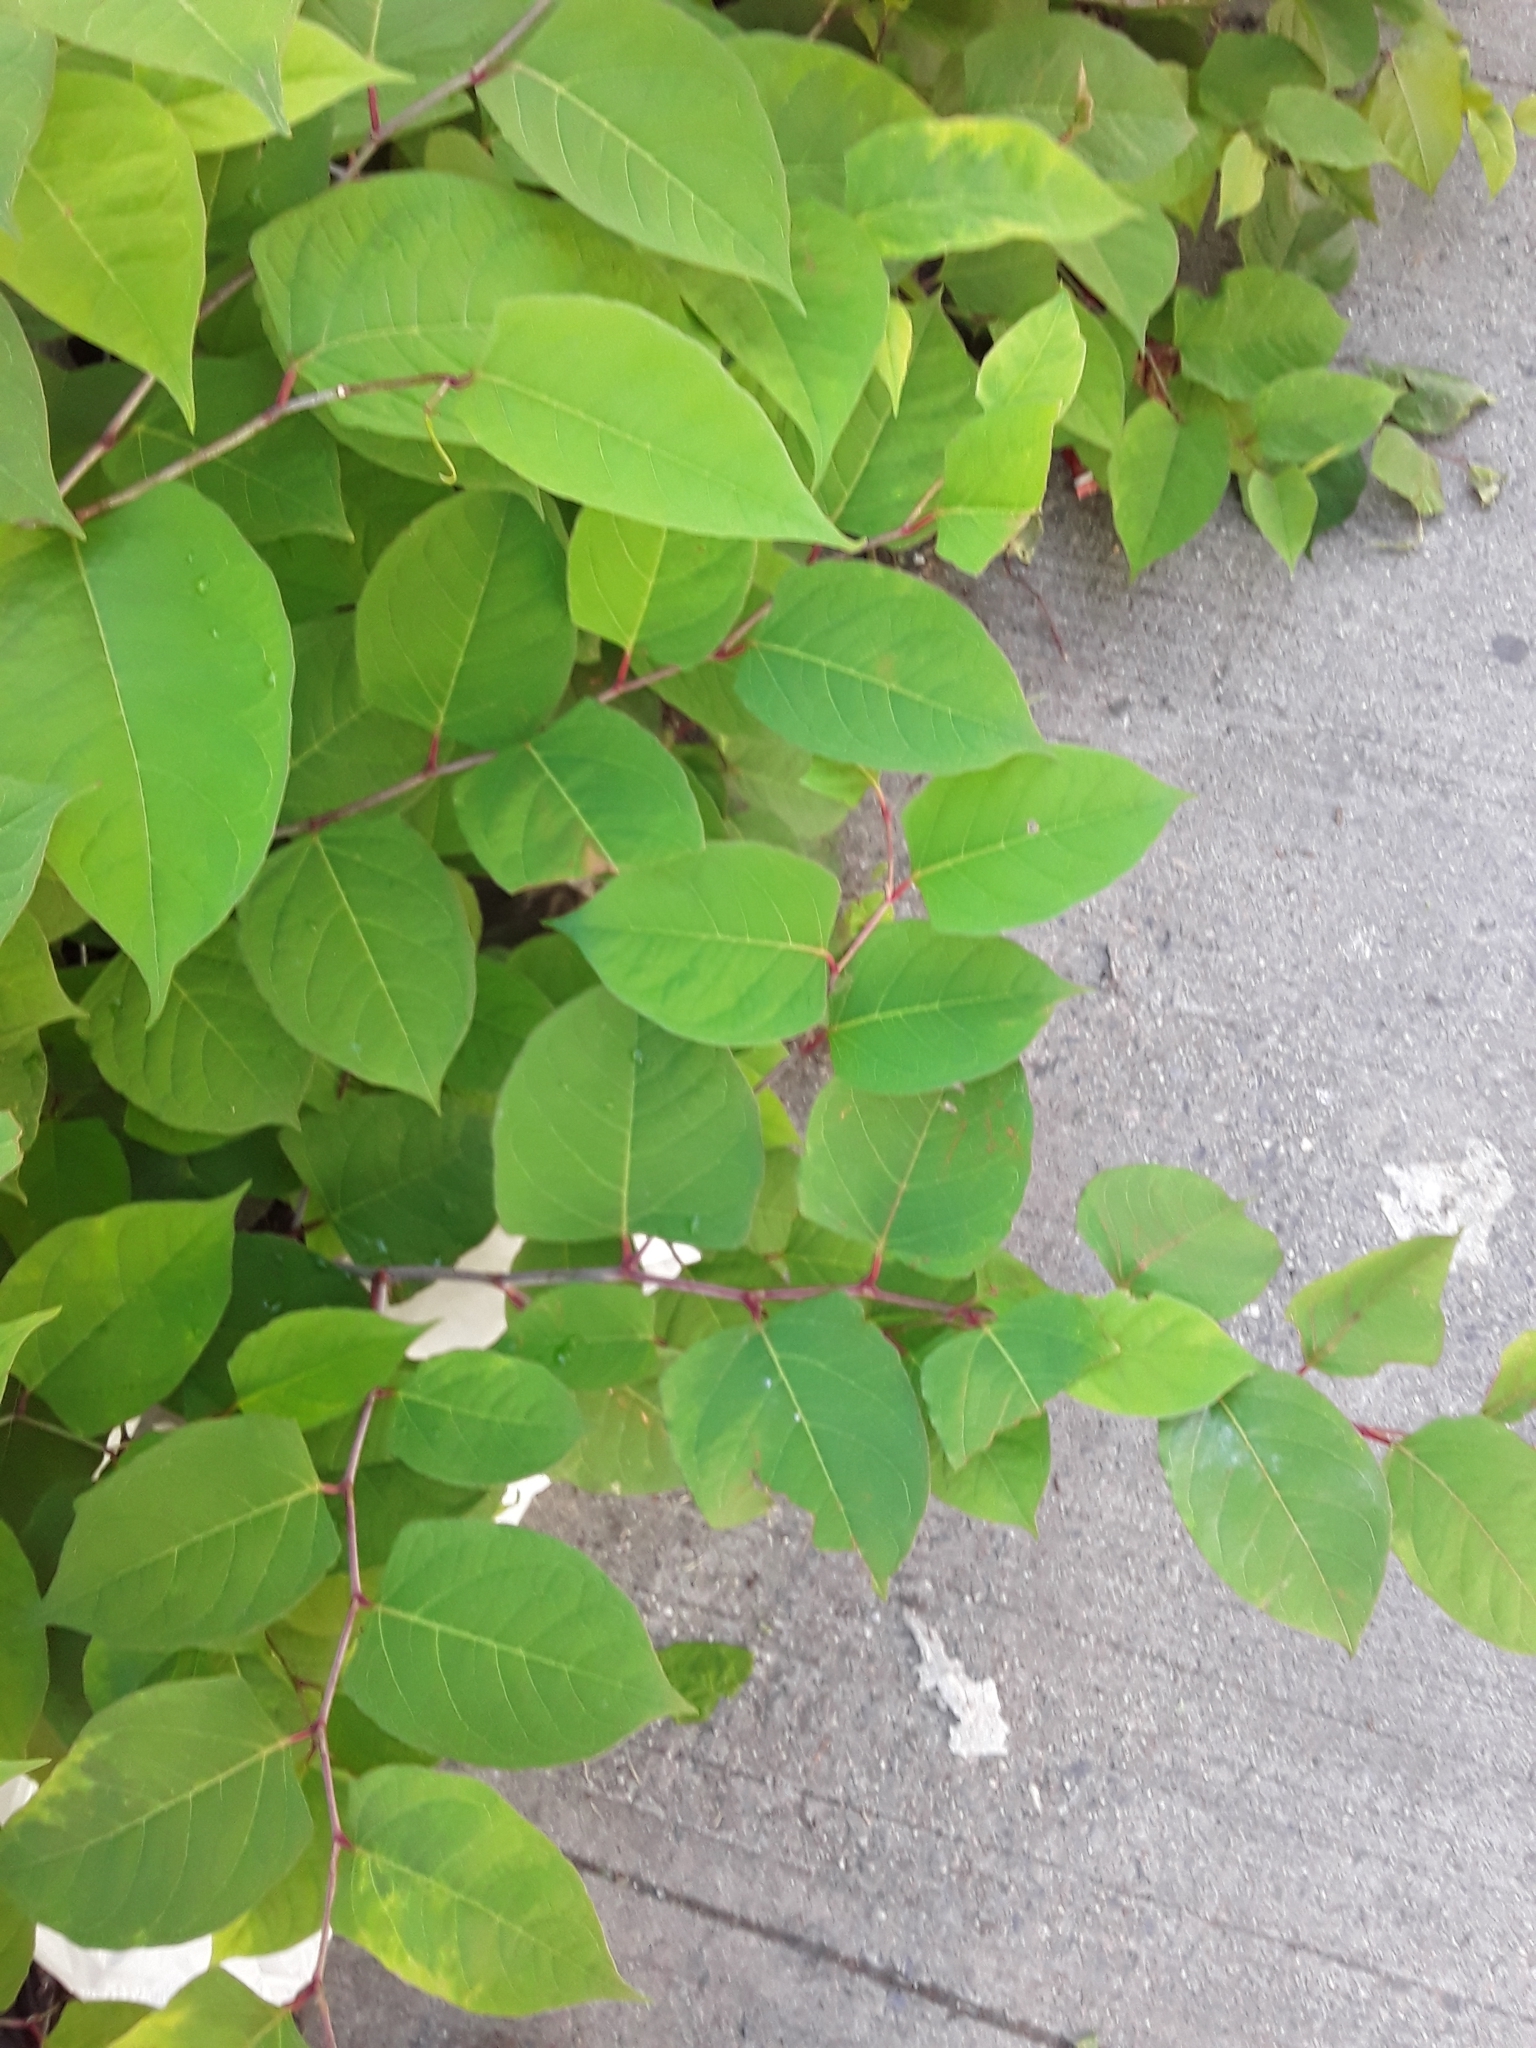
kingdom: Plantae
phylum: Tracheophyta
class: Magnoliopsida
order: Caryophyllales
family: Polygonaceae
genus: Reynoutria
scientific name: Reynoutria japonica
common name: Japanese knotweed
